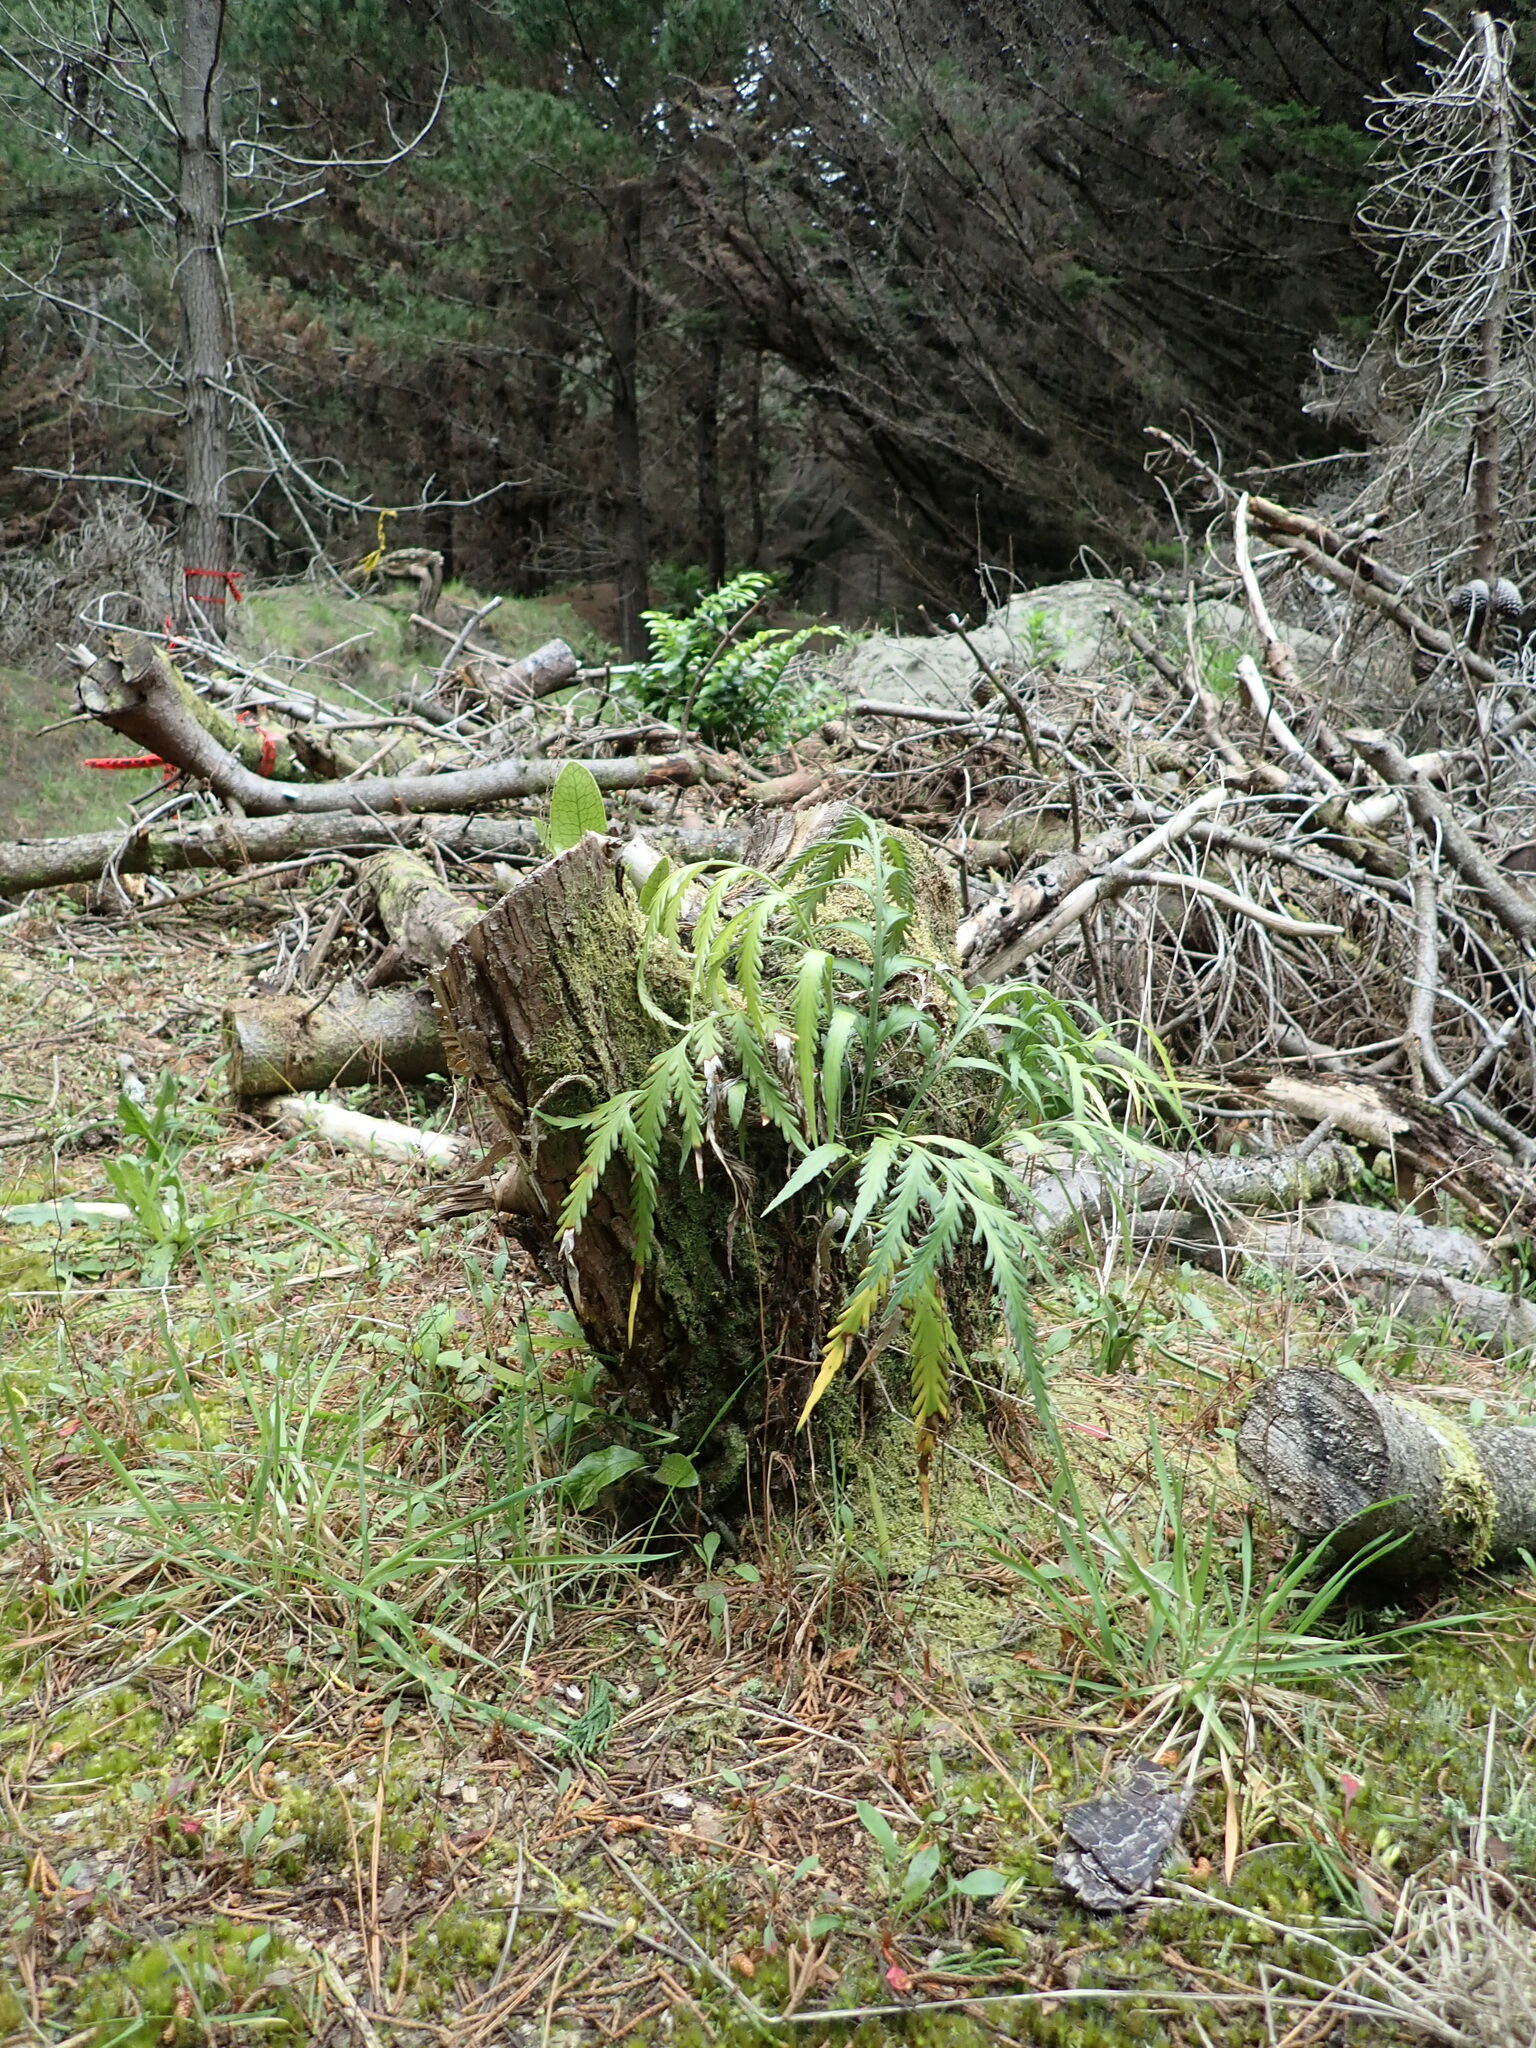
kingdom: Plantae
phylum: Tracheophyta
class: Polypodiopsida
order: Polypodiales
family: Aspleniaceae
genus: Asplenium
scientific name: Asplenium flaccidum
